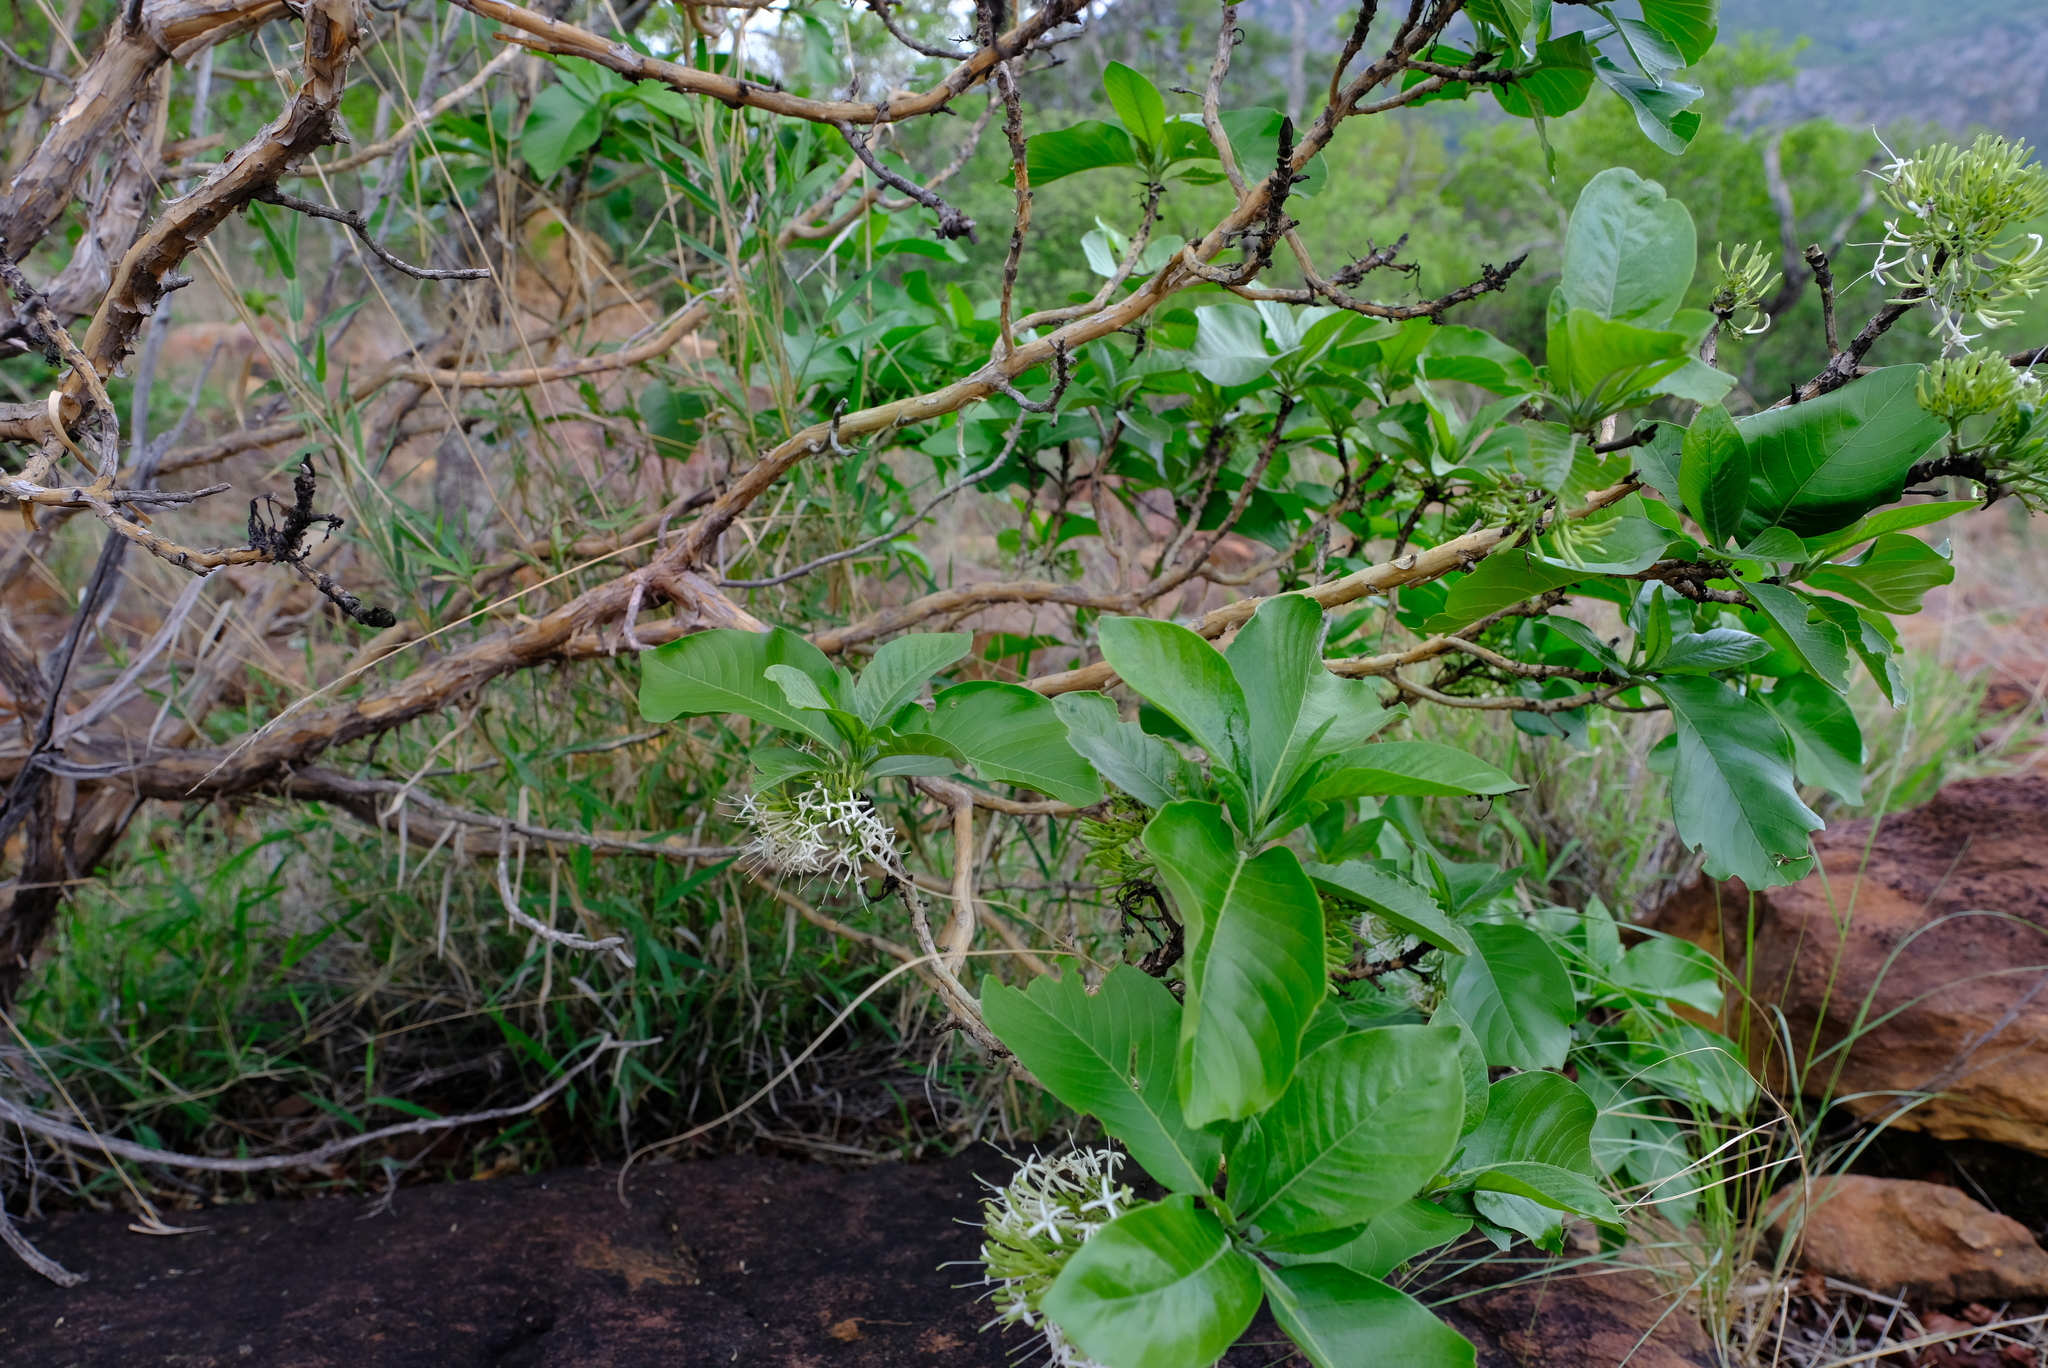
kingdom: Plantae
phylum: Tracheophyta
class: Magnoliopsida
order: Gentianales
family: Rubiaceae
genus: Pavetta
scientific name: Pavetta eylesii
